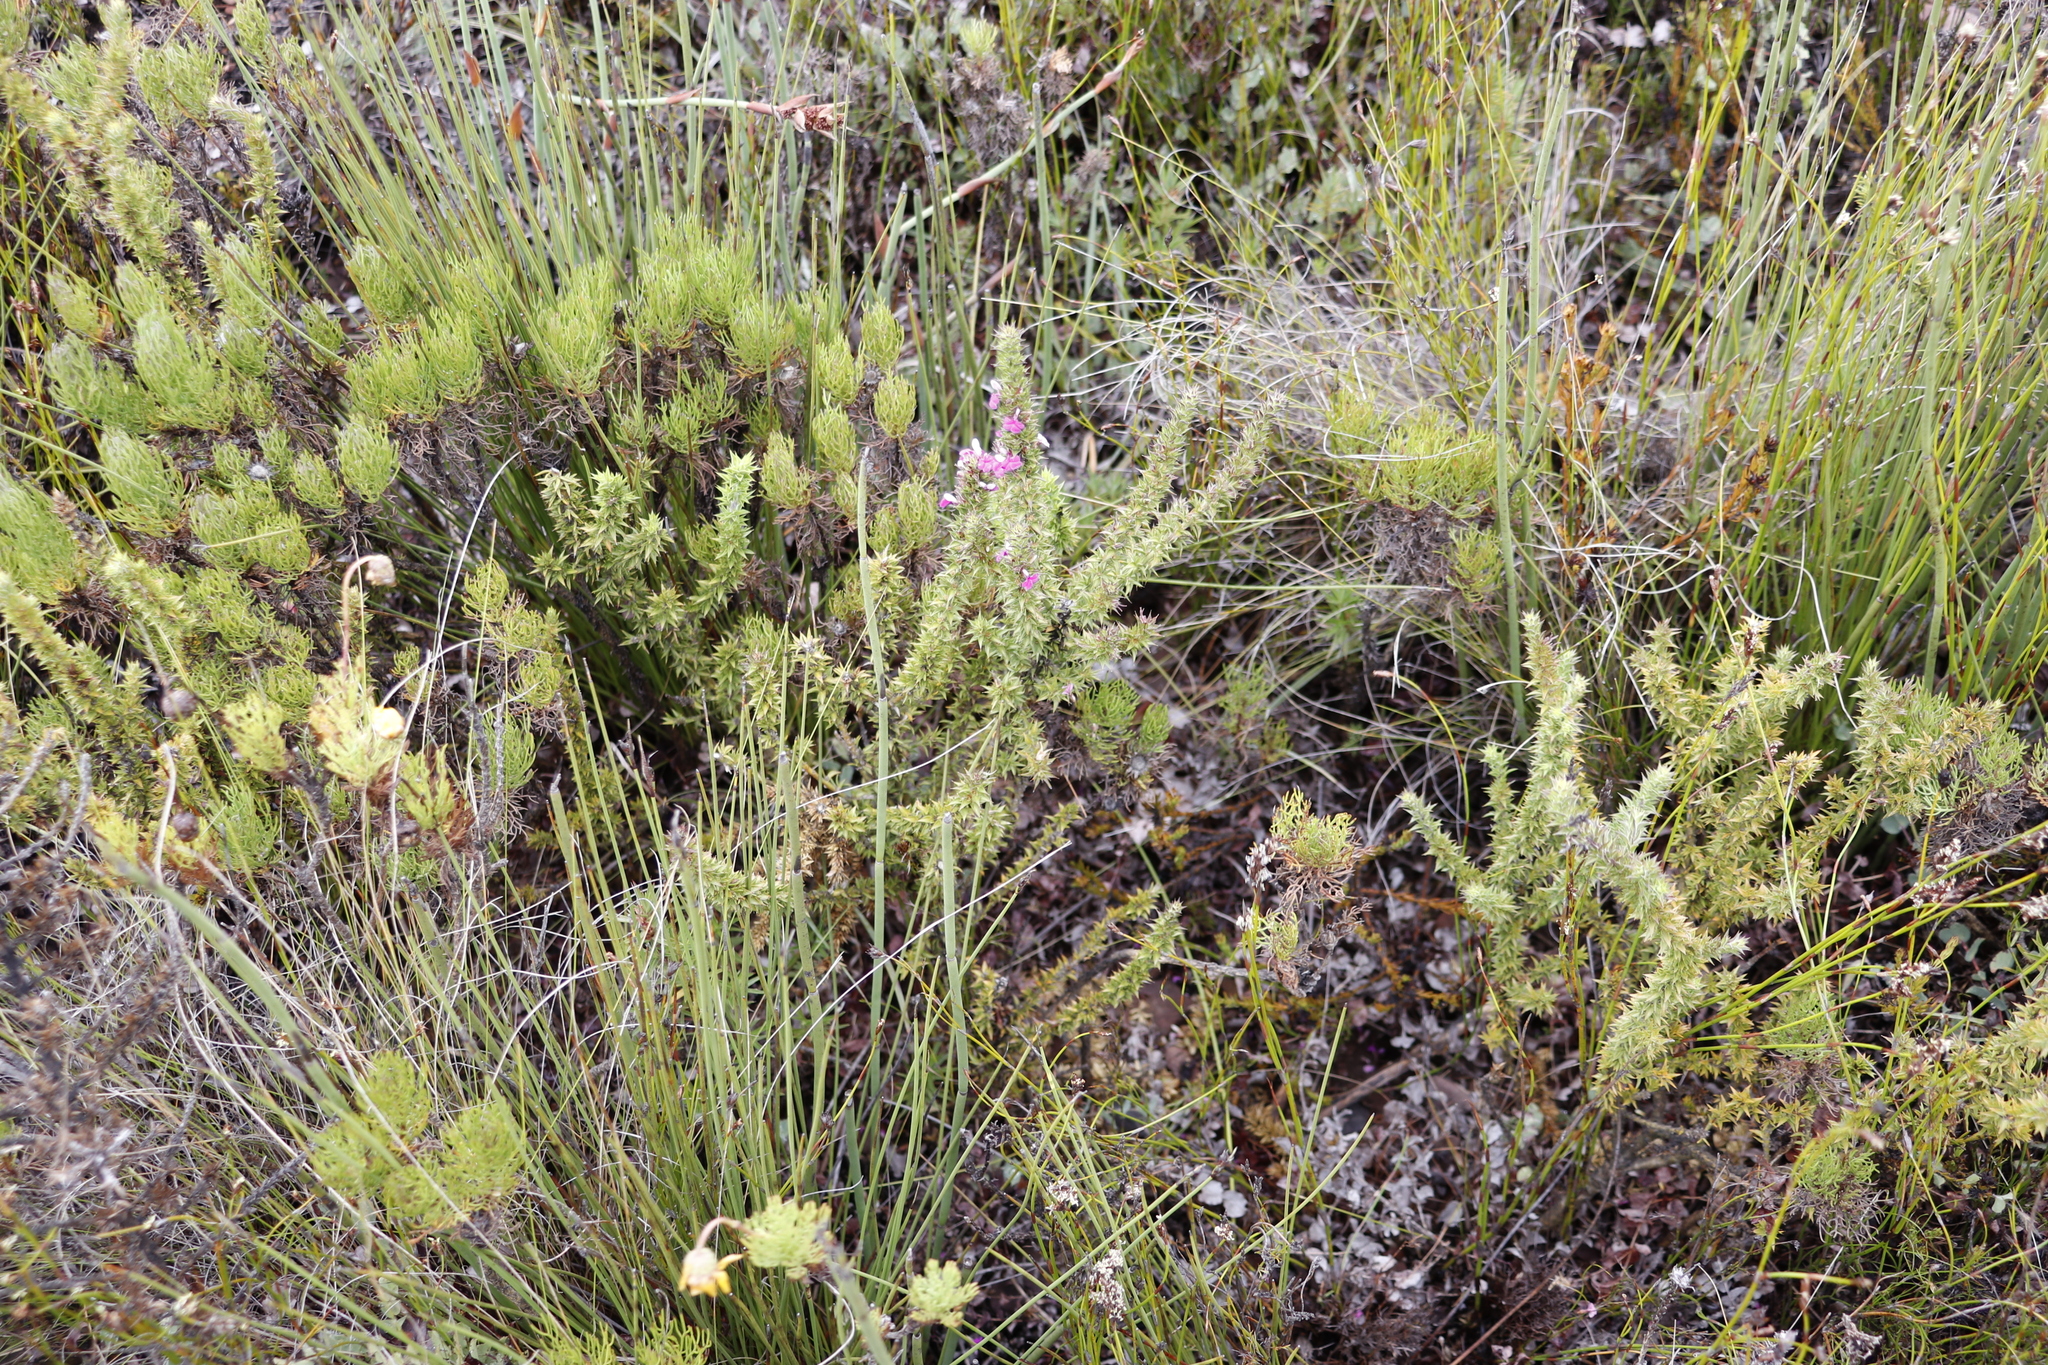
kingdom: Plantae
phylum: Tracheophyta
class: Magnoliopsida
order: Fabales
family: Polygalaceae
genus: Muraltia
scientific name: Muraltia heisteria
